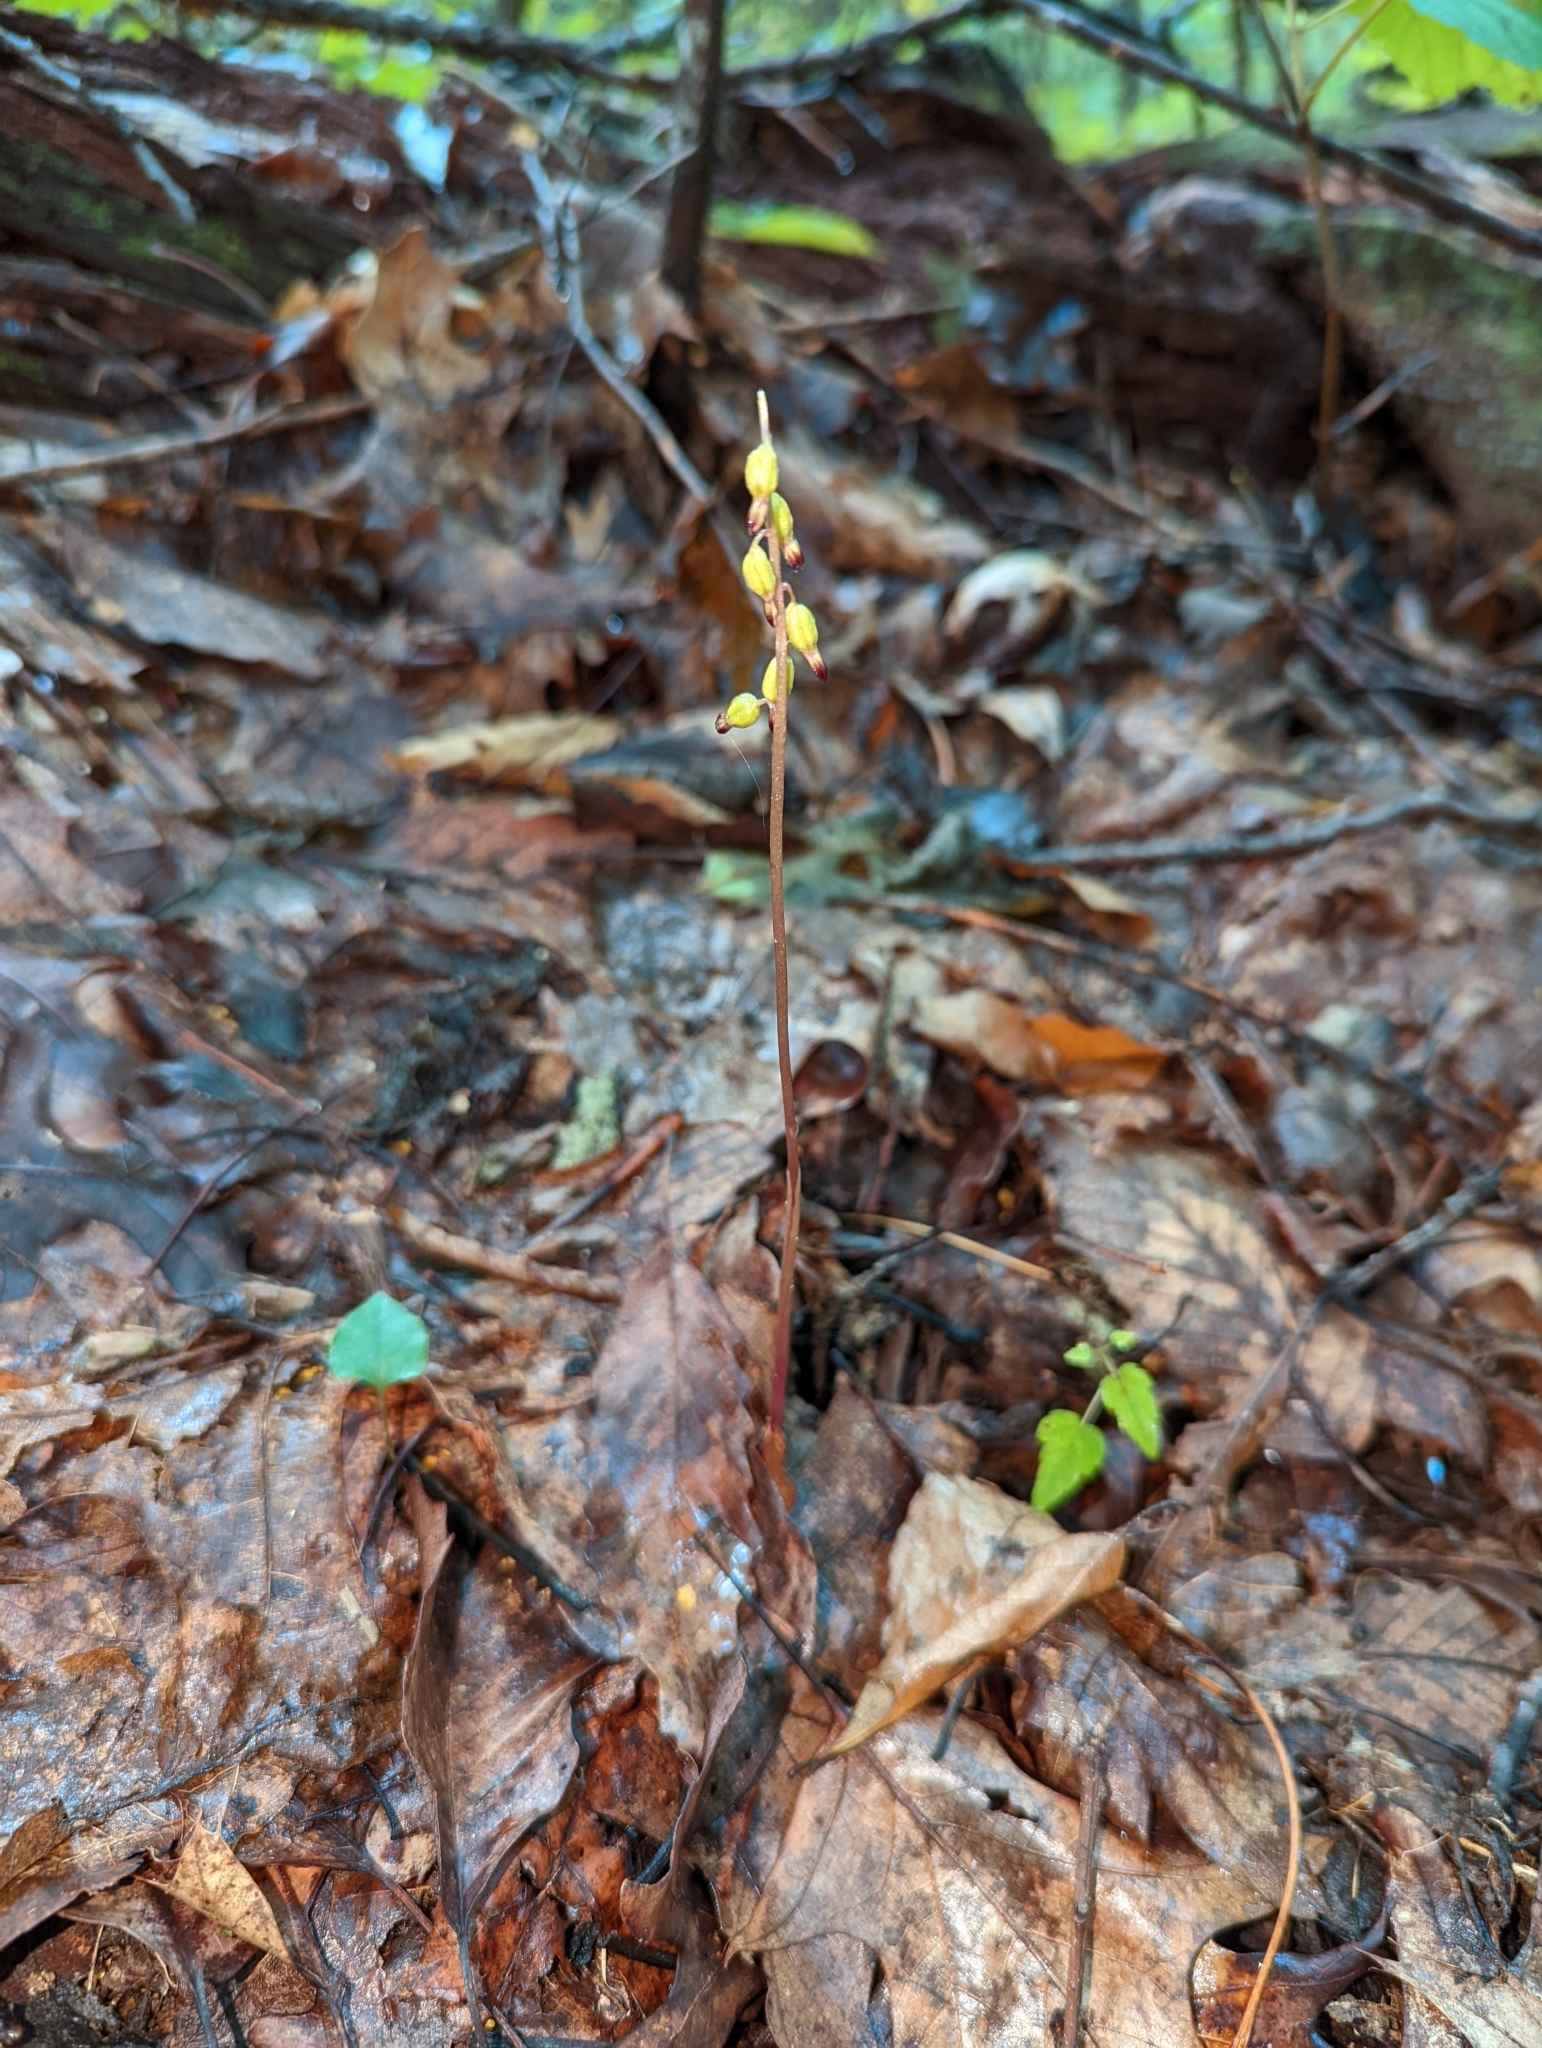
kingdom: Plantae
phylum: Tracheophyta
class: Liliopsida
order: Asparagales
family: Orchidaceae
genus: Corallorhiza
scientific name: Corallorhiza odontorhiza
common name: Autumn coralroot
